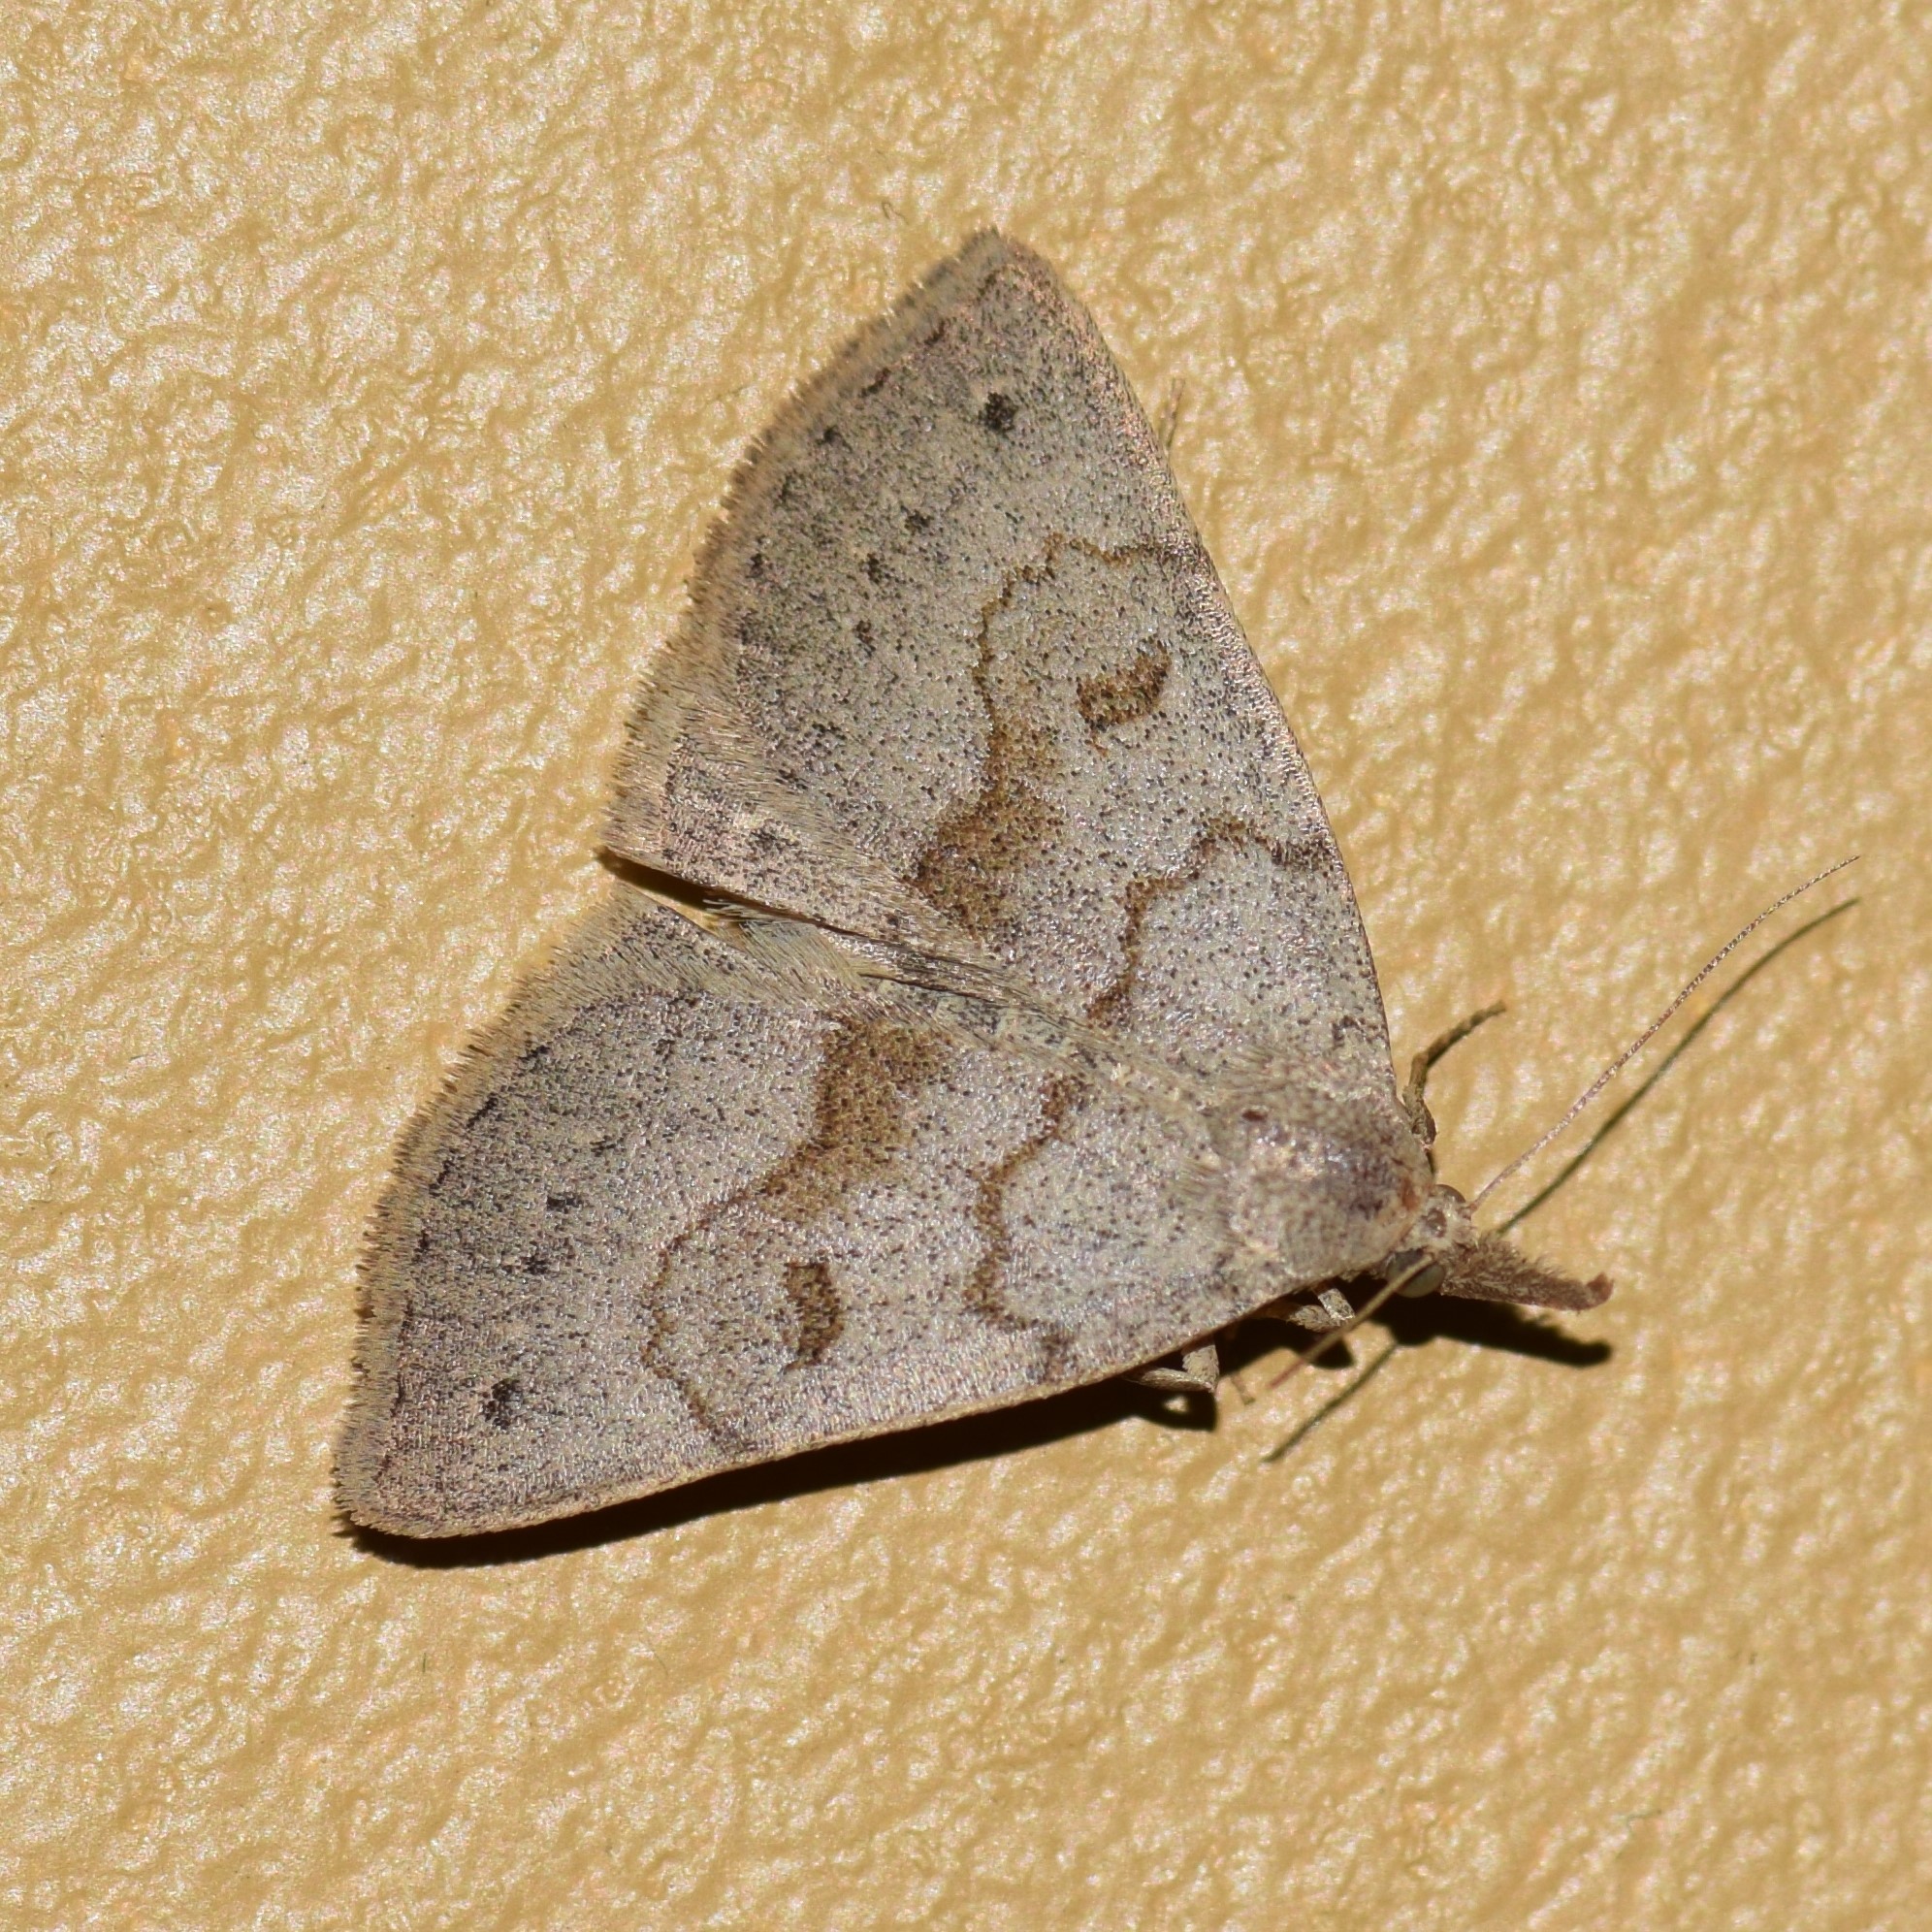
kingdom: Animalia
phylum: Arthropoda
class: Insecta
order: Lepidoptera
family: Erebidae
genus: Macrochilo
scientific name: Macrochilo morbidalis
